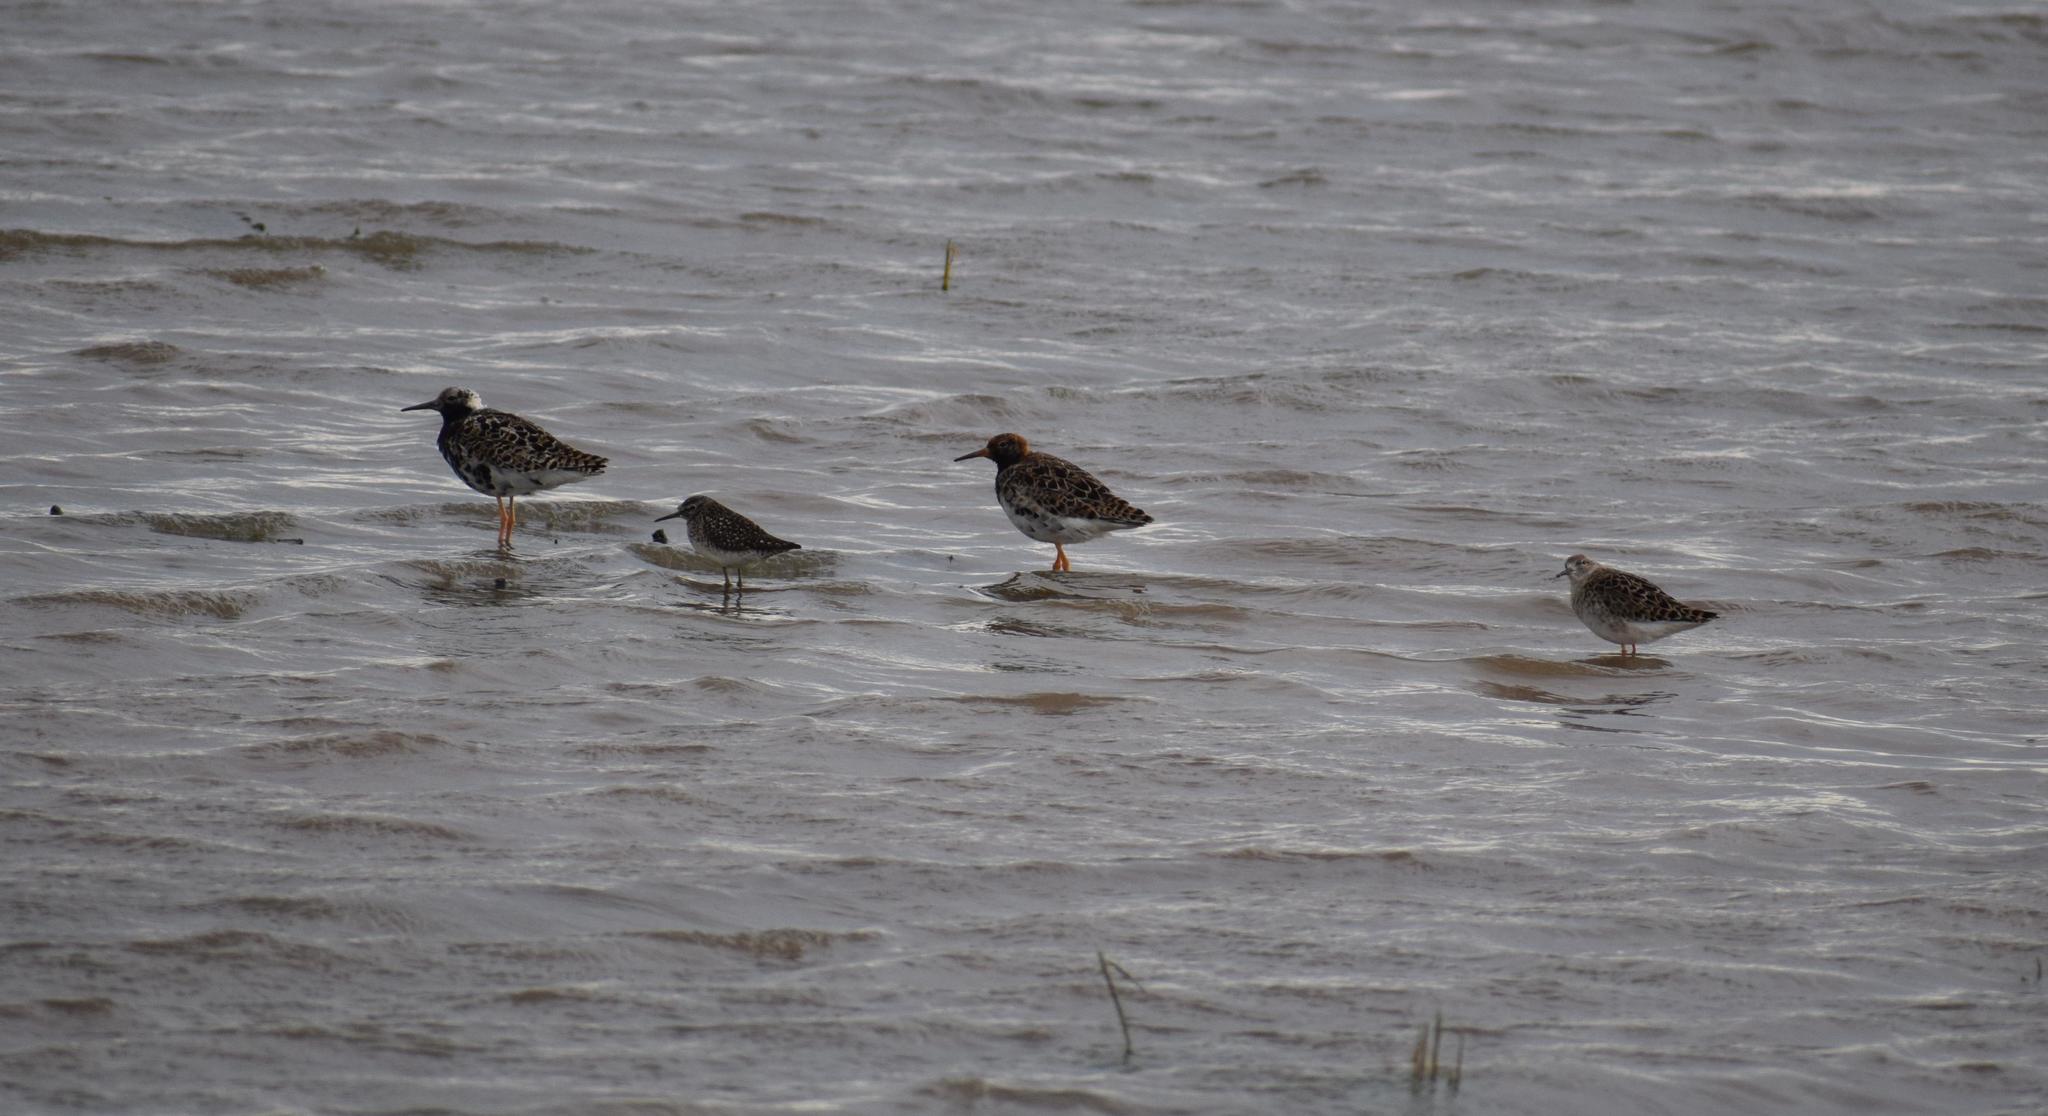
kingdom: Animalia
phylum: Chordata
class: Aves
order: Charadriiformes
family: Scolopacidae
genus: Calidris
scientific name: Calidris pugnax
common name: Ruff
